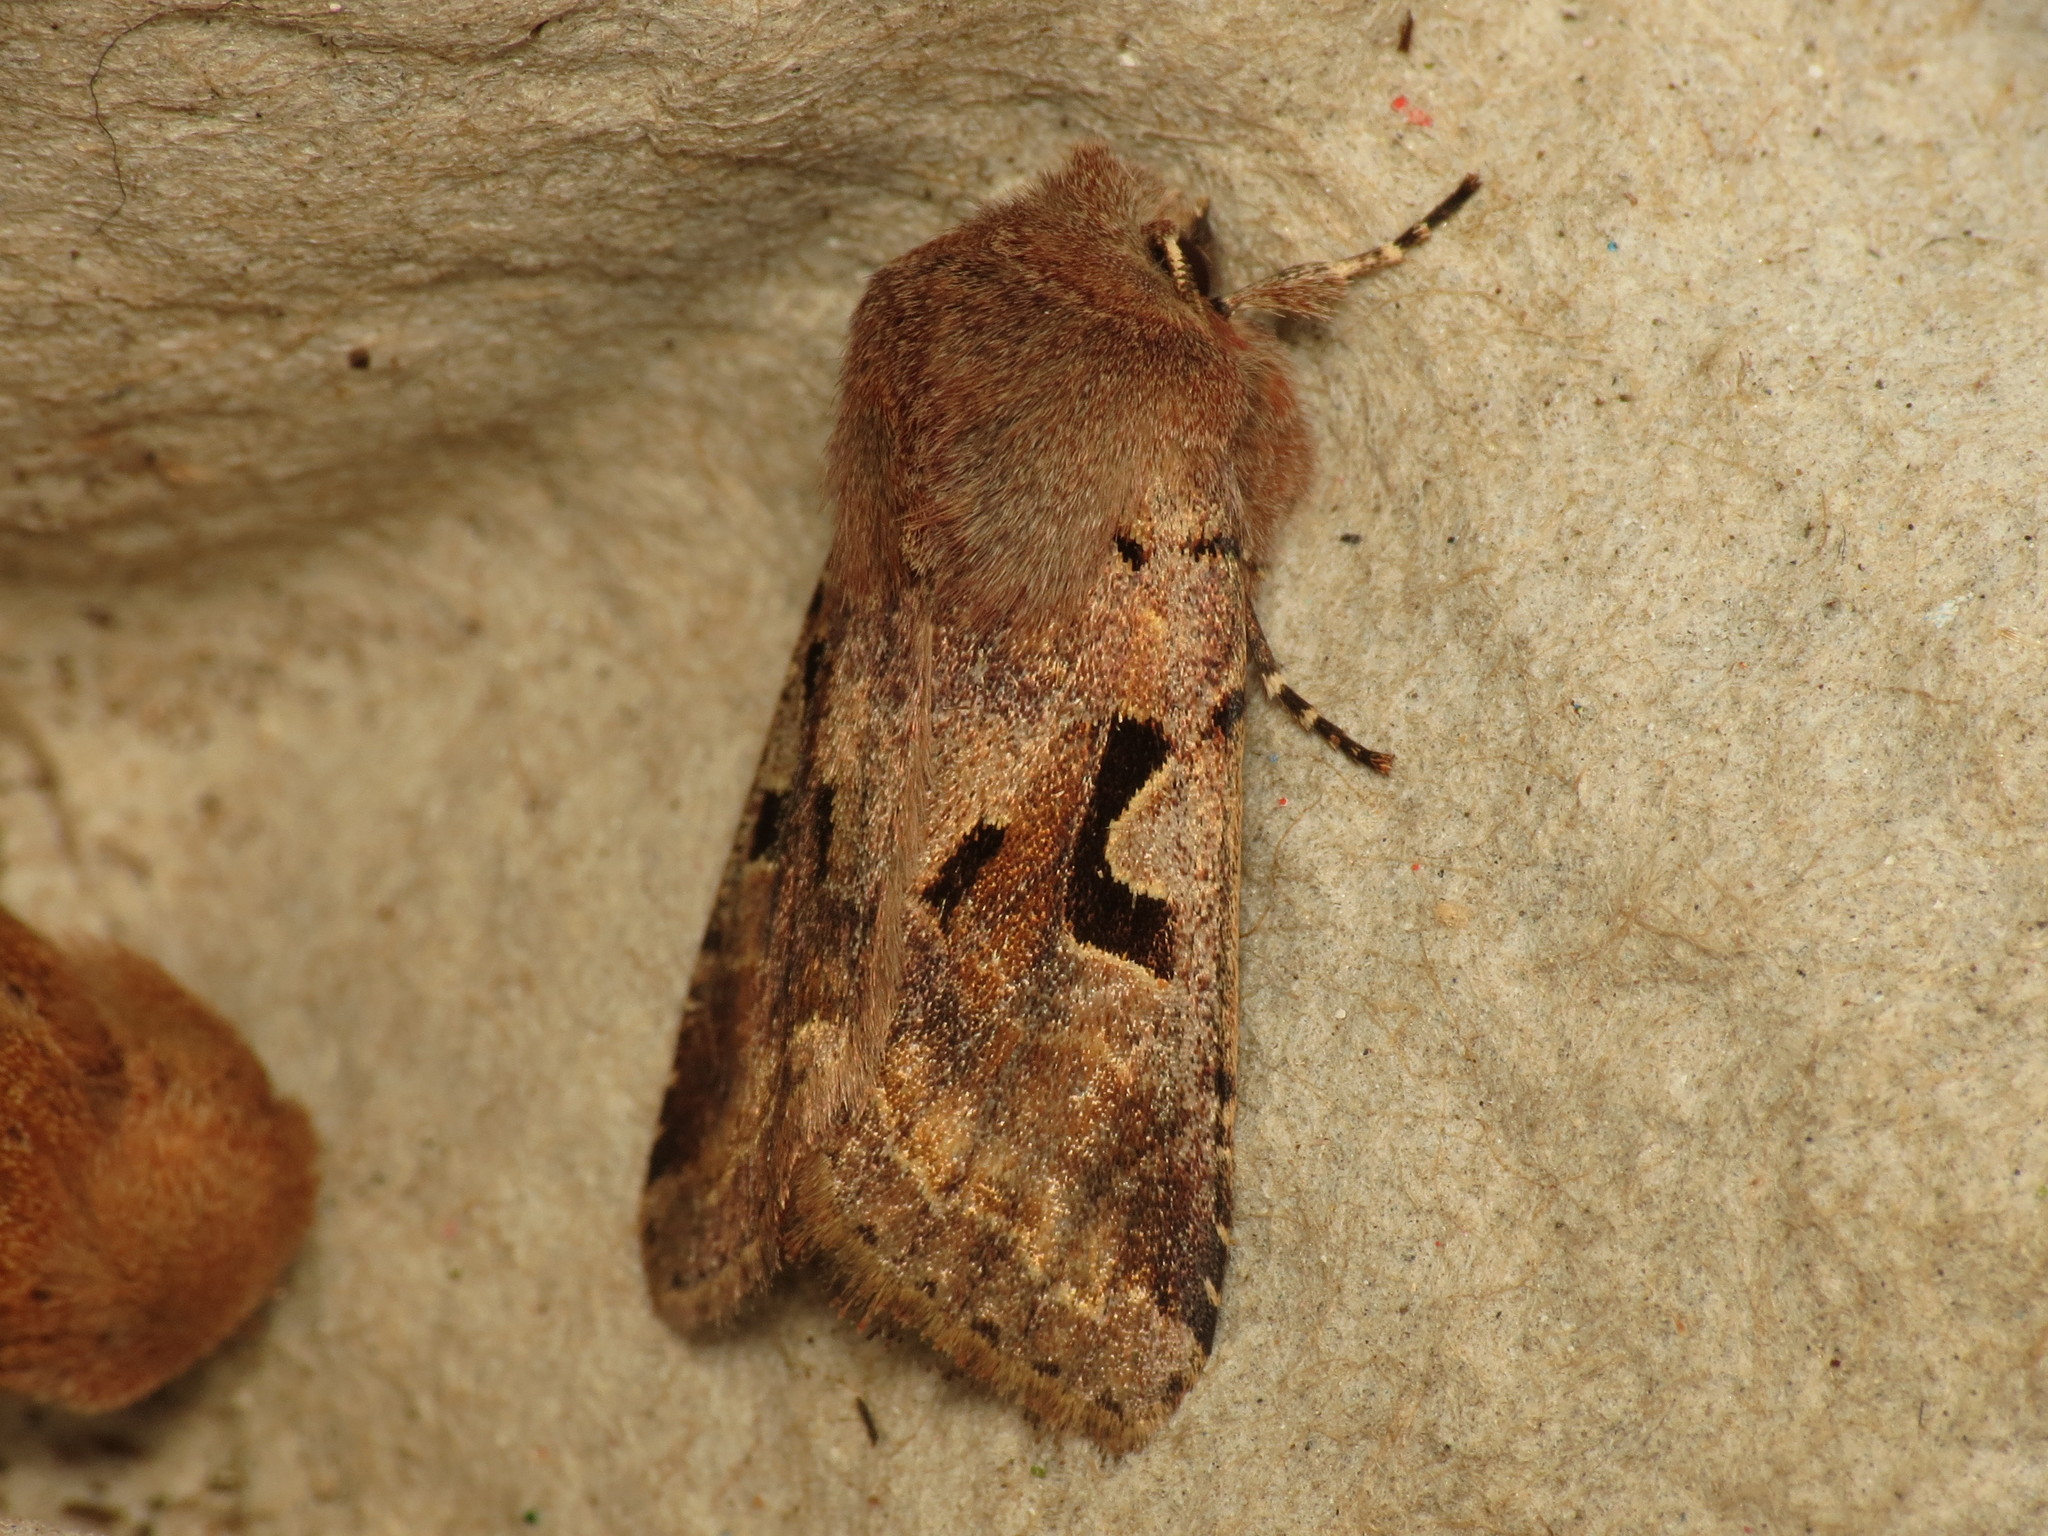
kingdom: Animalia
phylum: Arthropoda
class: Insecta
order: Lepidoptera
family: Noctuidae
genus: Orthosia
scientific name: Orthosia gothica
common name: Hebrew character
